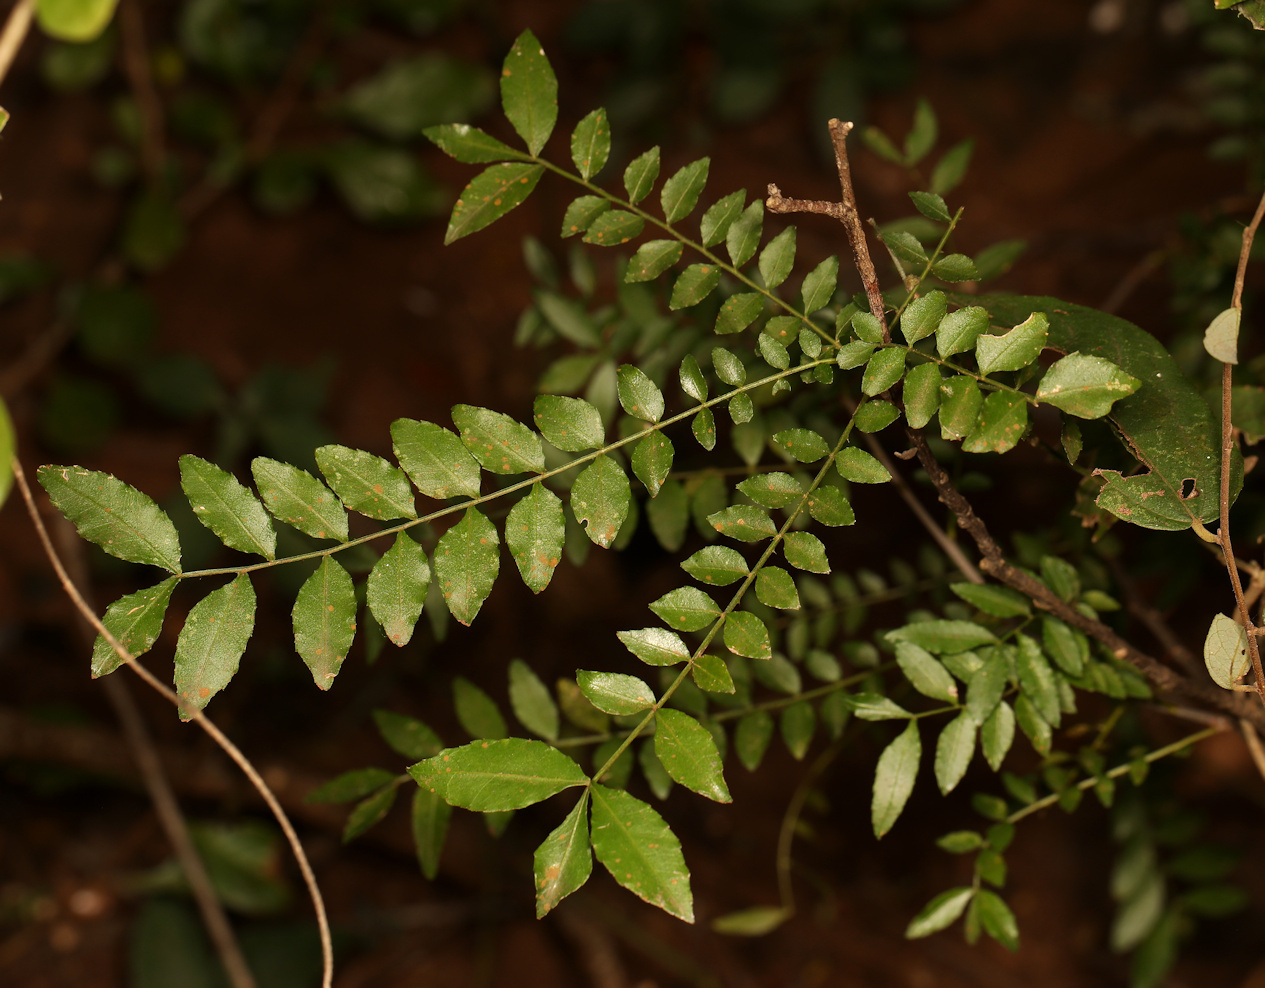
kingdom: Plantae
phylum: Tracheophyta
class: Magnoliopsida
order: Sapindales
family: Rutaceae
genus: Zanthoxylum
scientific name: Zanthoxylum capense
